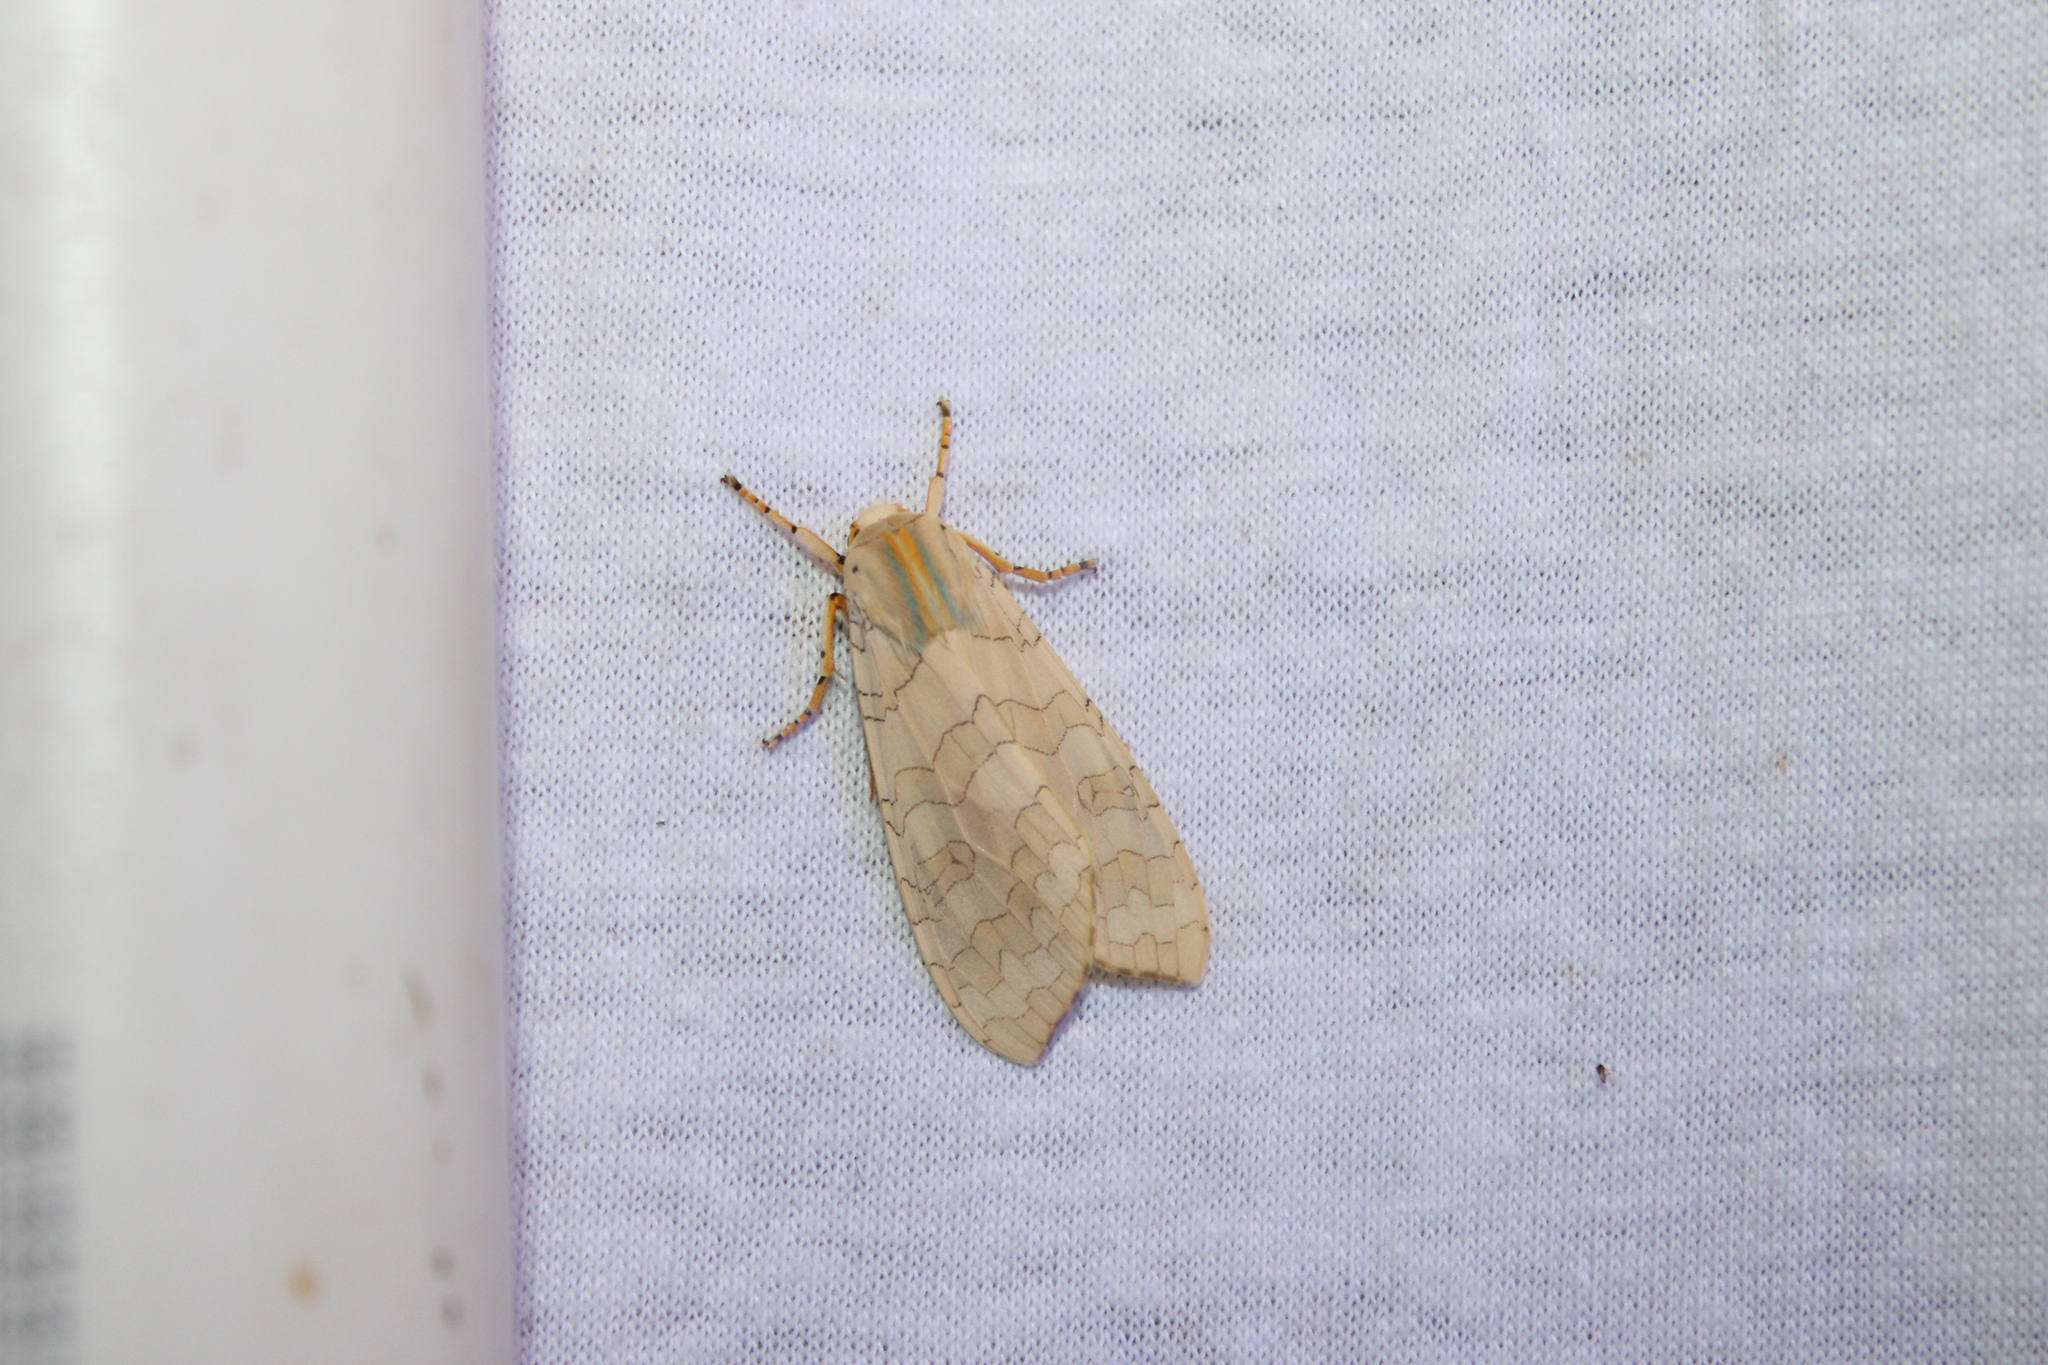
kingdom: Animalia
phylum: Arthropoda
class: Insecta
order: Lepidoptera
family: Erebidae
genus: Halysidota
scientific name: Halysidota
